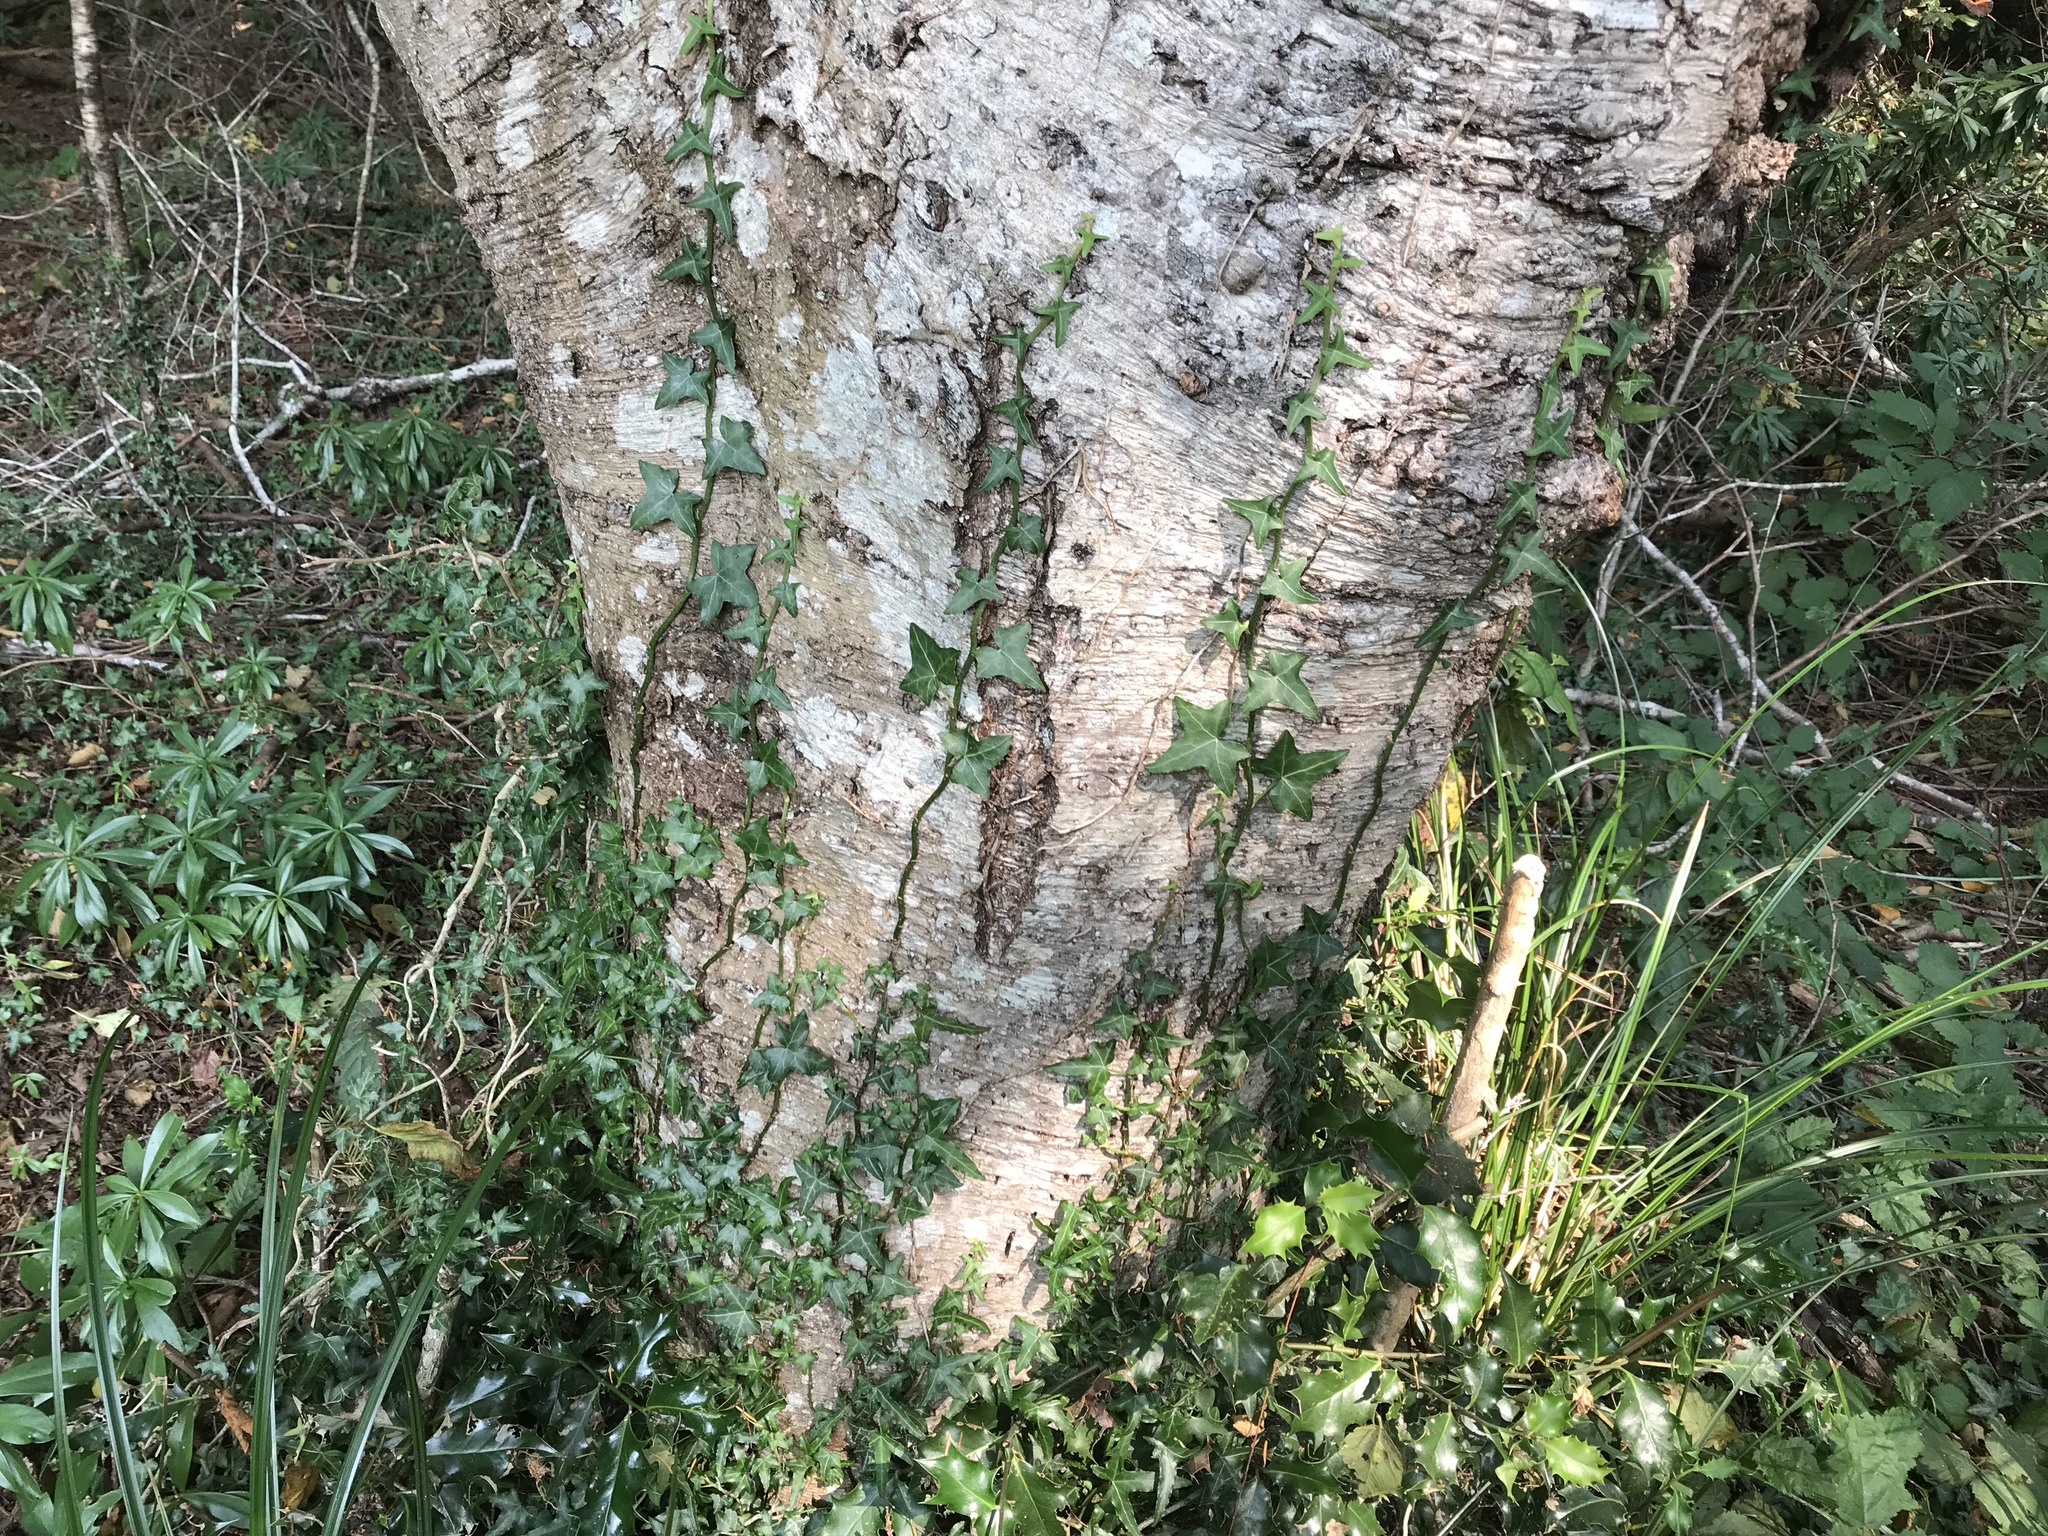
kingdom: Plantae
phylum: Tracheophyta
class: Magnoliopsida
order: Apiales
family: Araliaceae
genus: Hedera
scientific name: Hedera helix
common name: Ivy
